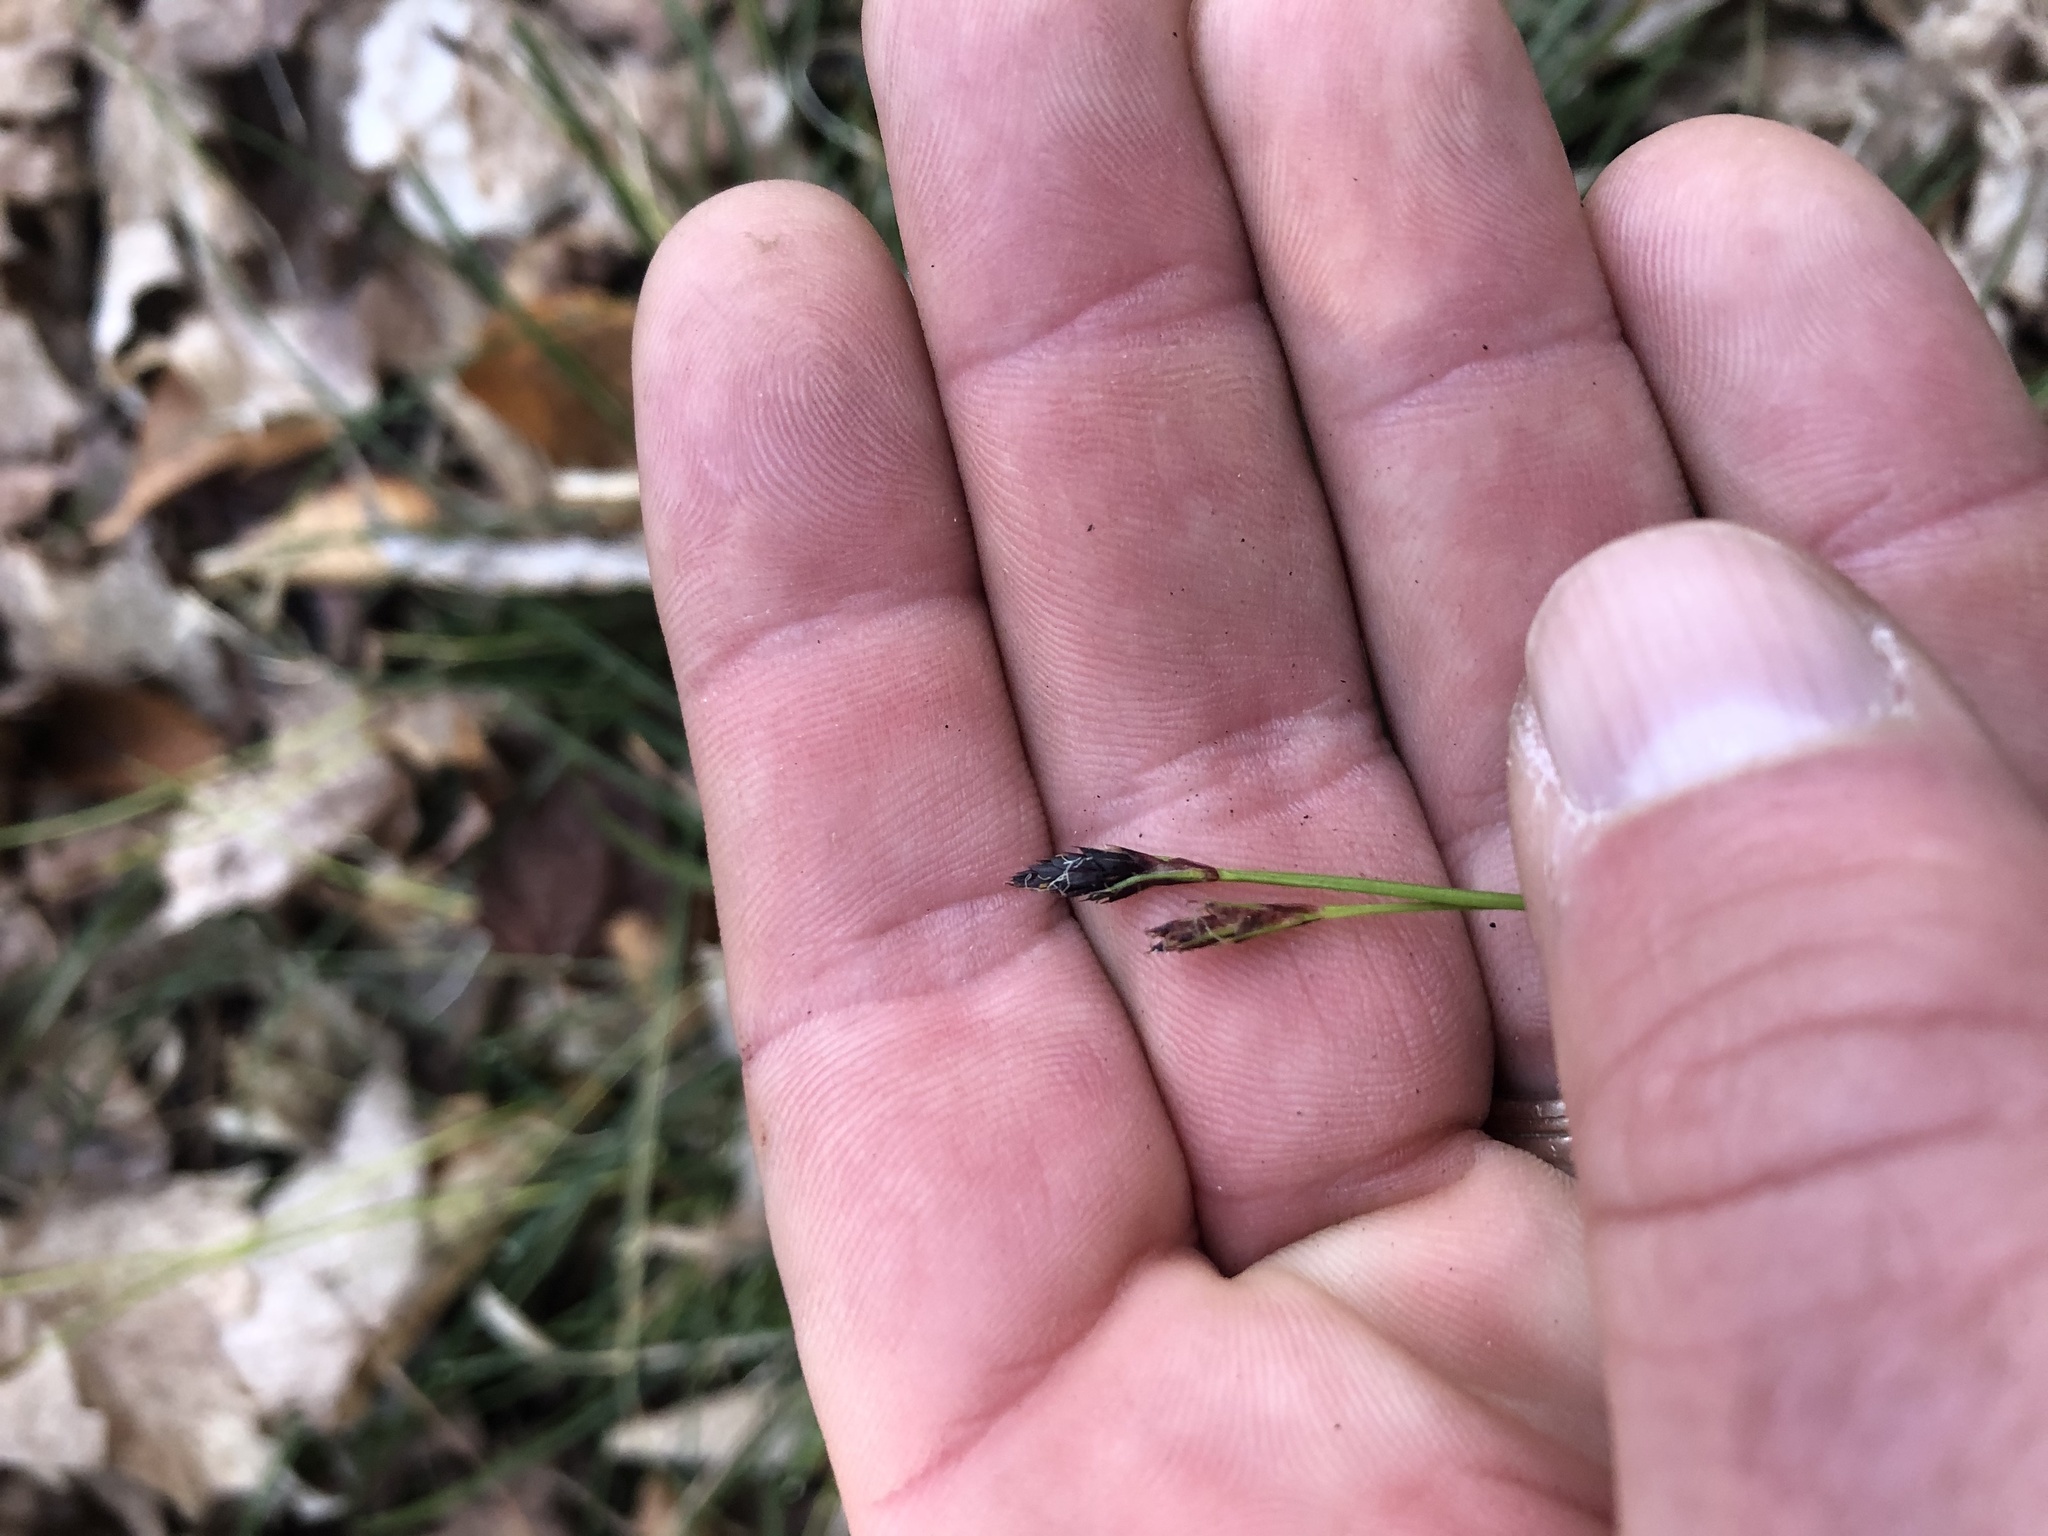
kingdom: Plantae
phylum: Tracheophyta
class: Liliopsida
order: Poales
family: Cyperaceae
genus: Carex
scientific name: Carex pedunculata
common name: Pedunculate sedge
